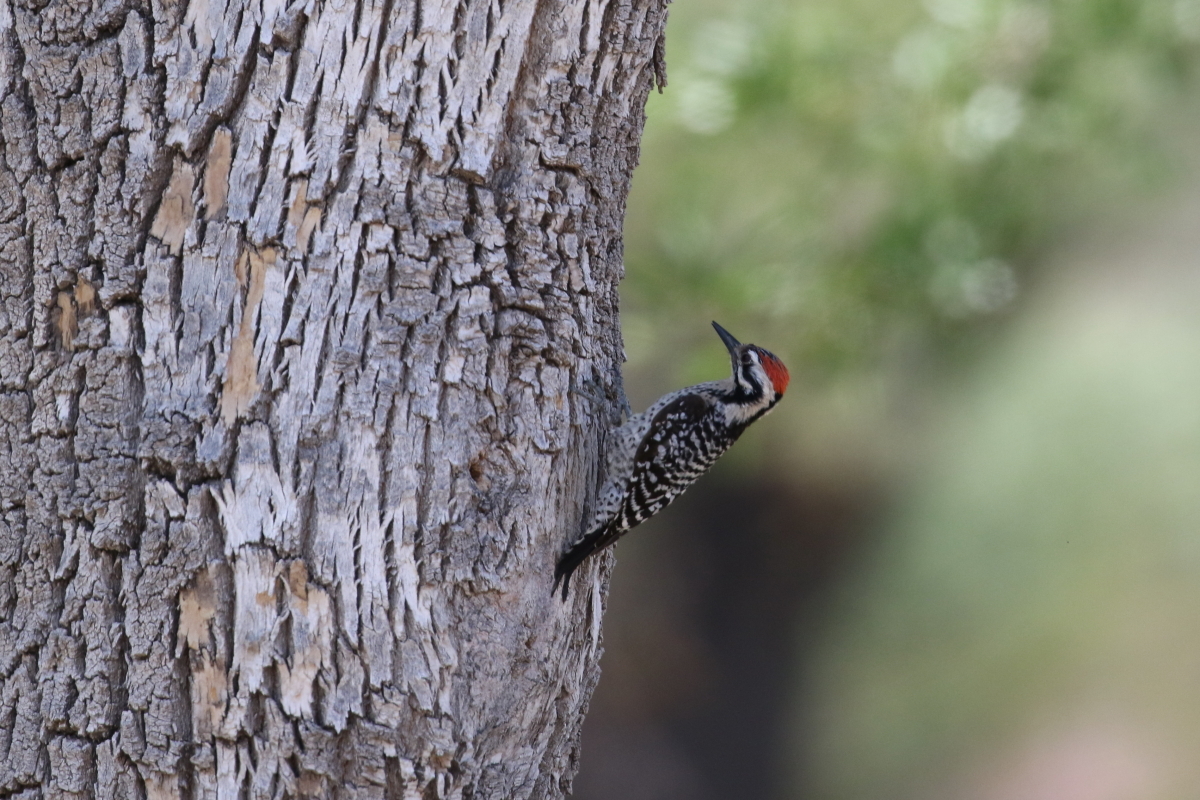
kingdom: Animalia
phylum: Chordata
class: Aves
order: Piciformes
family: Picidae
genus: Dryobates
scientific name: Dryobates scalaris
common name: Ladder-backed woodpecker
